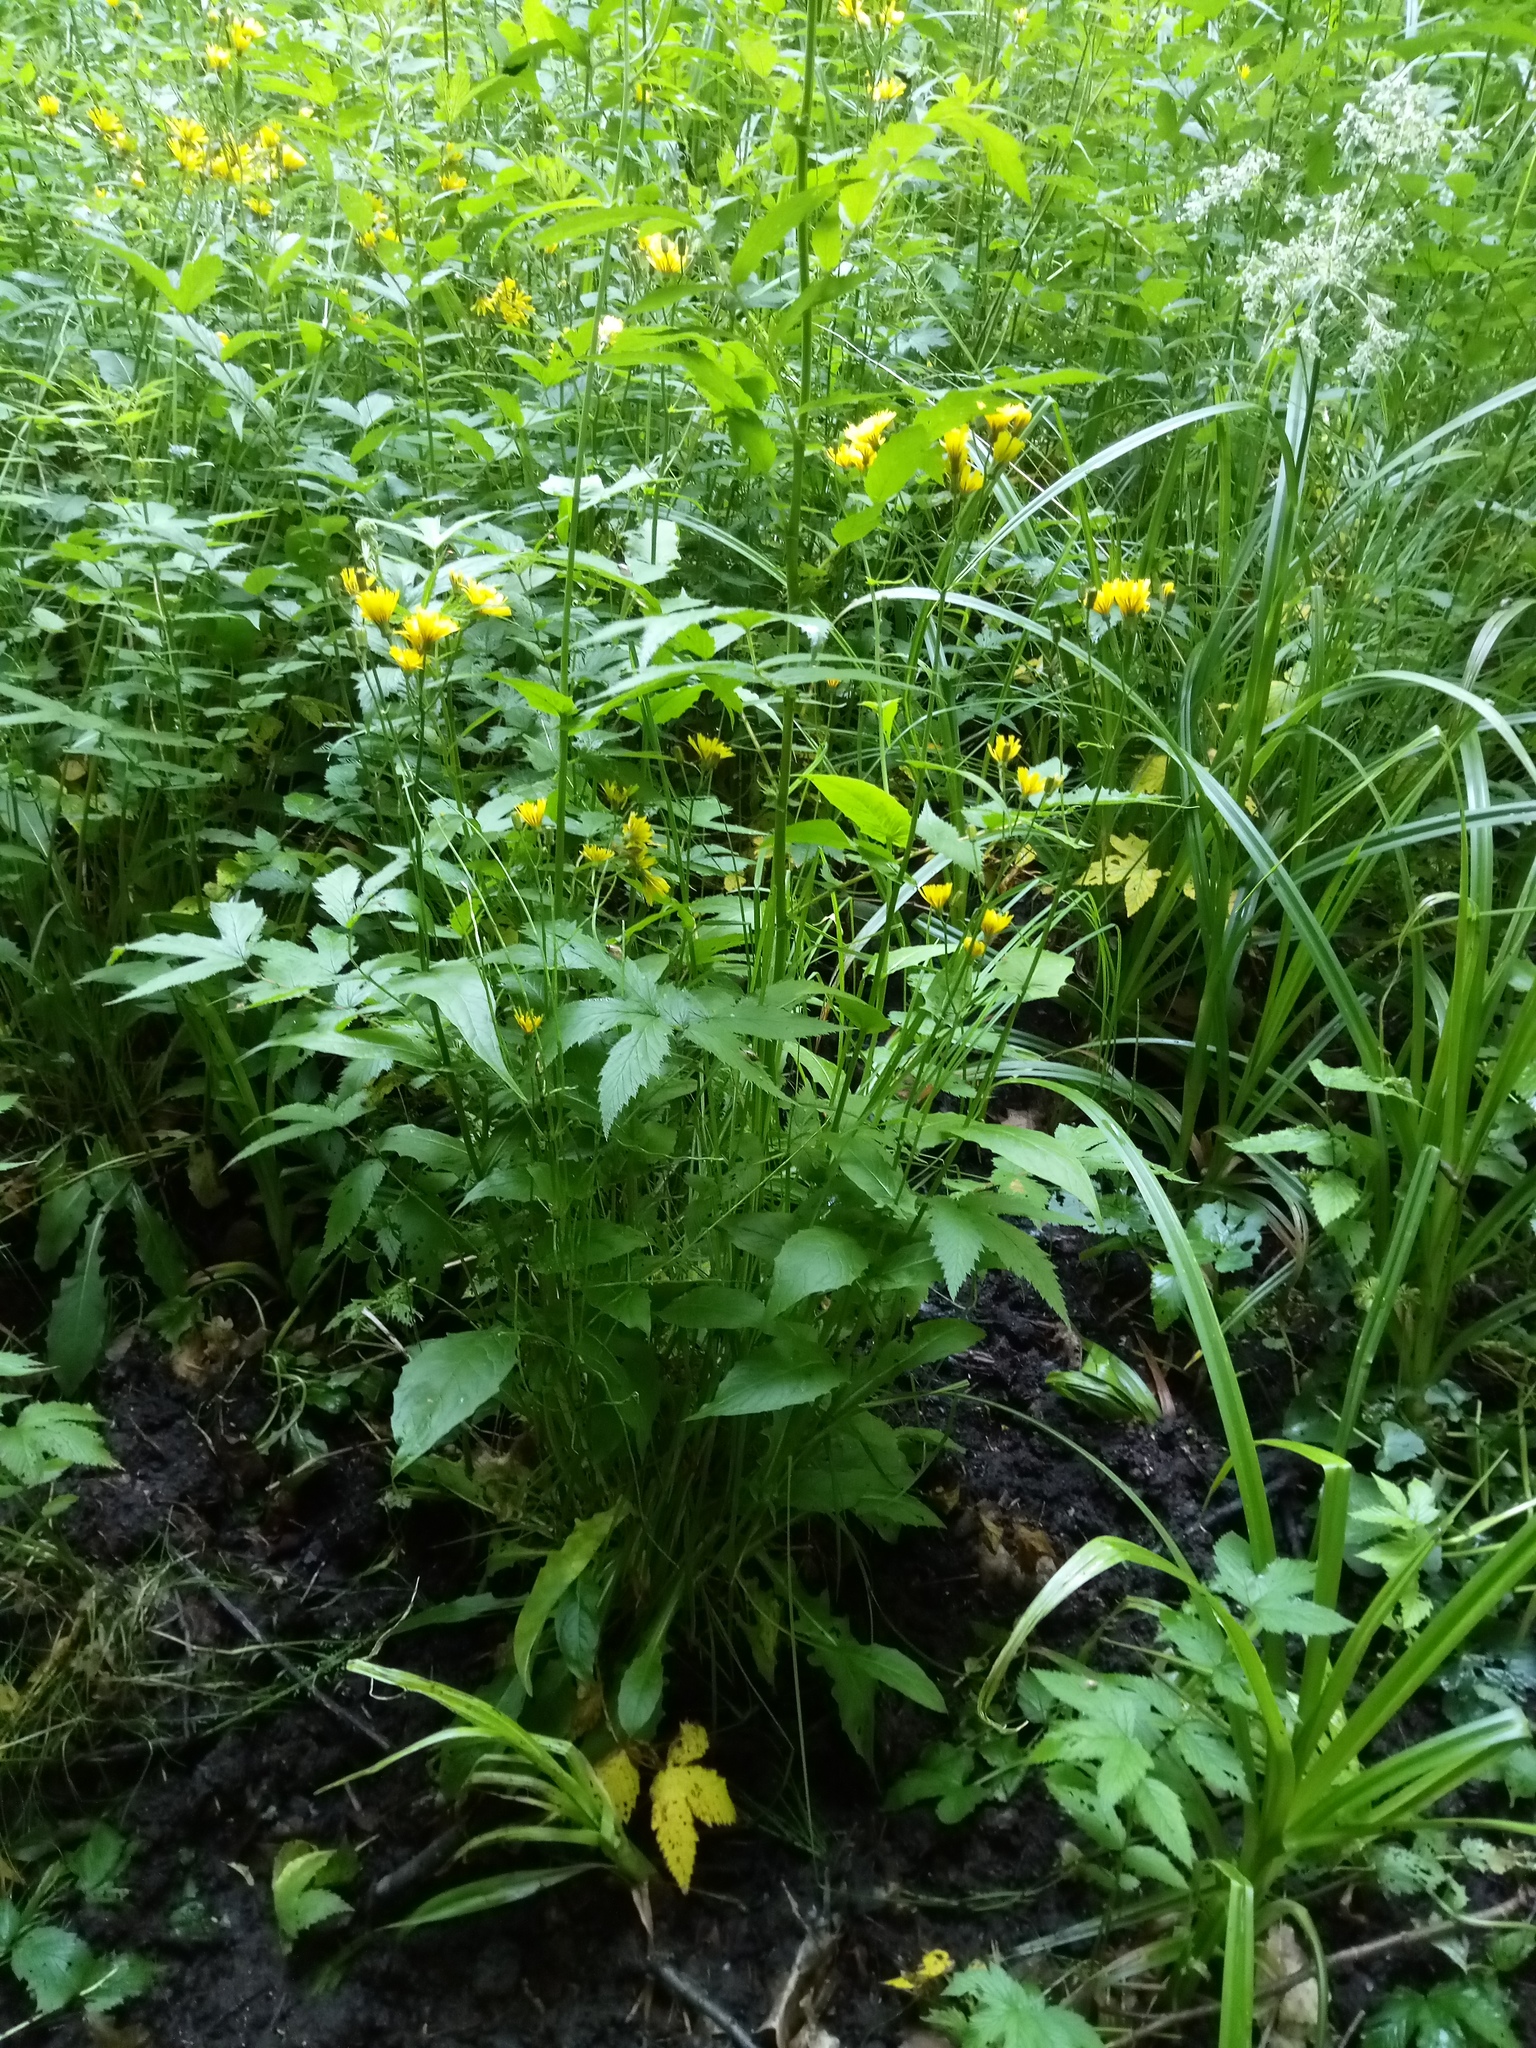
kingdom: Plantae
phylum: Tracheophyta
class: Magnoliopsida
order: Asterales
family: Asteraceae
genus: Crepis
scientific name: Crepis paludosa
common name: Marsh hawk's-beard
